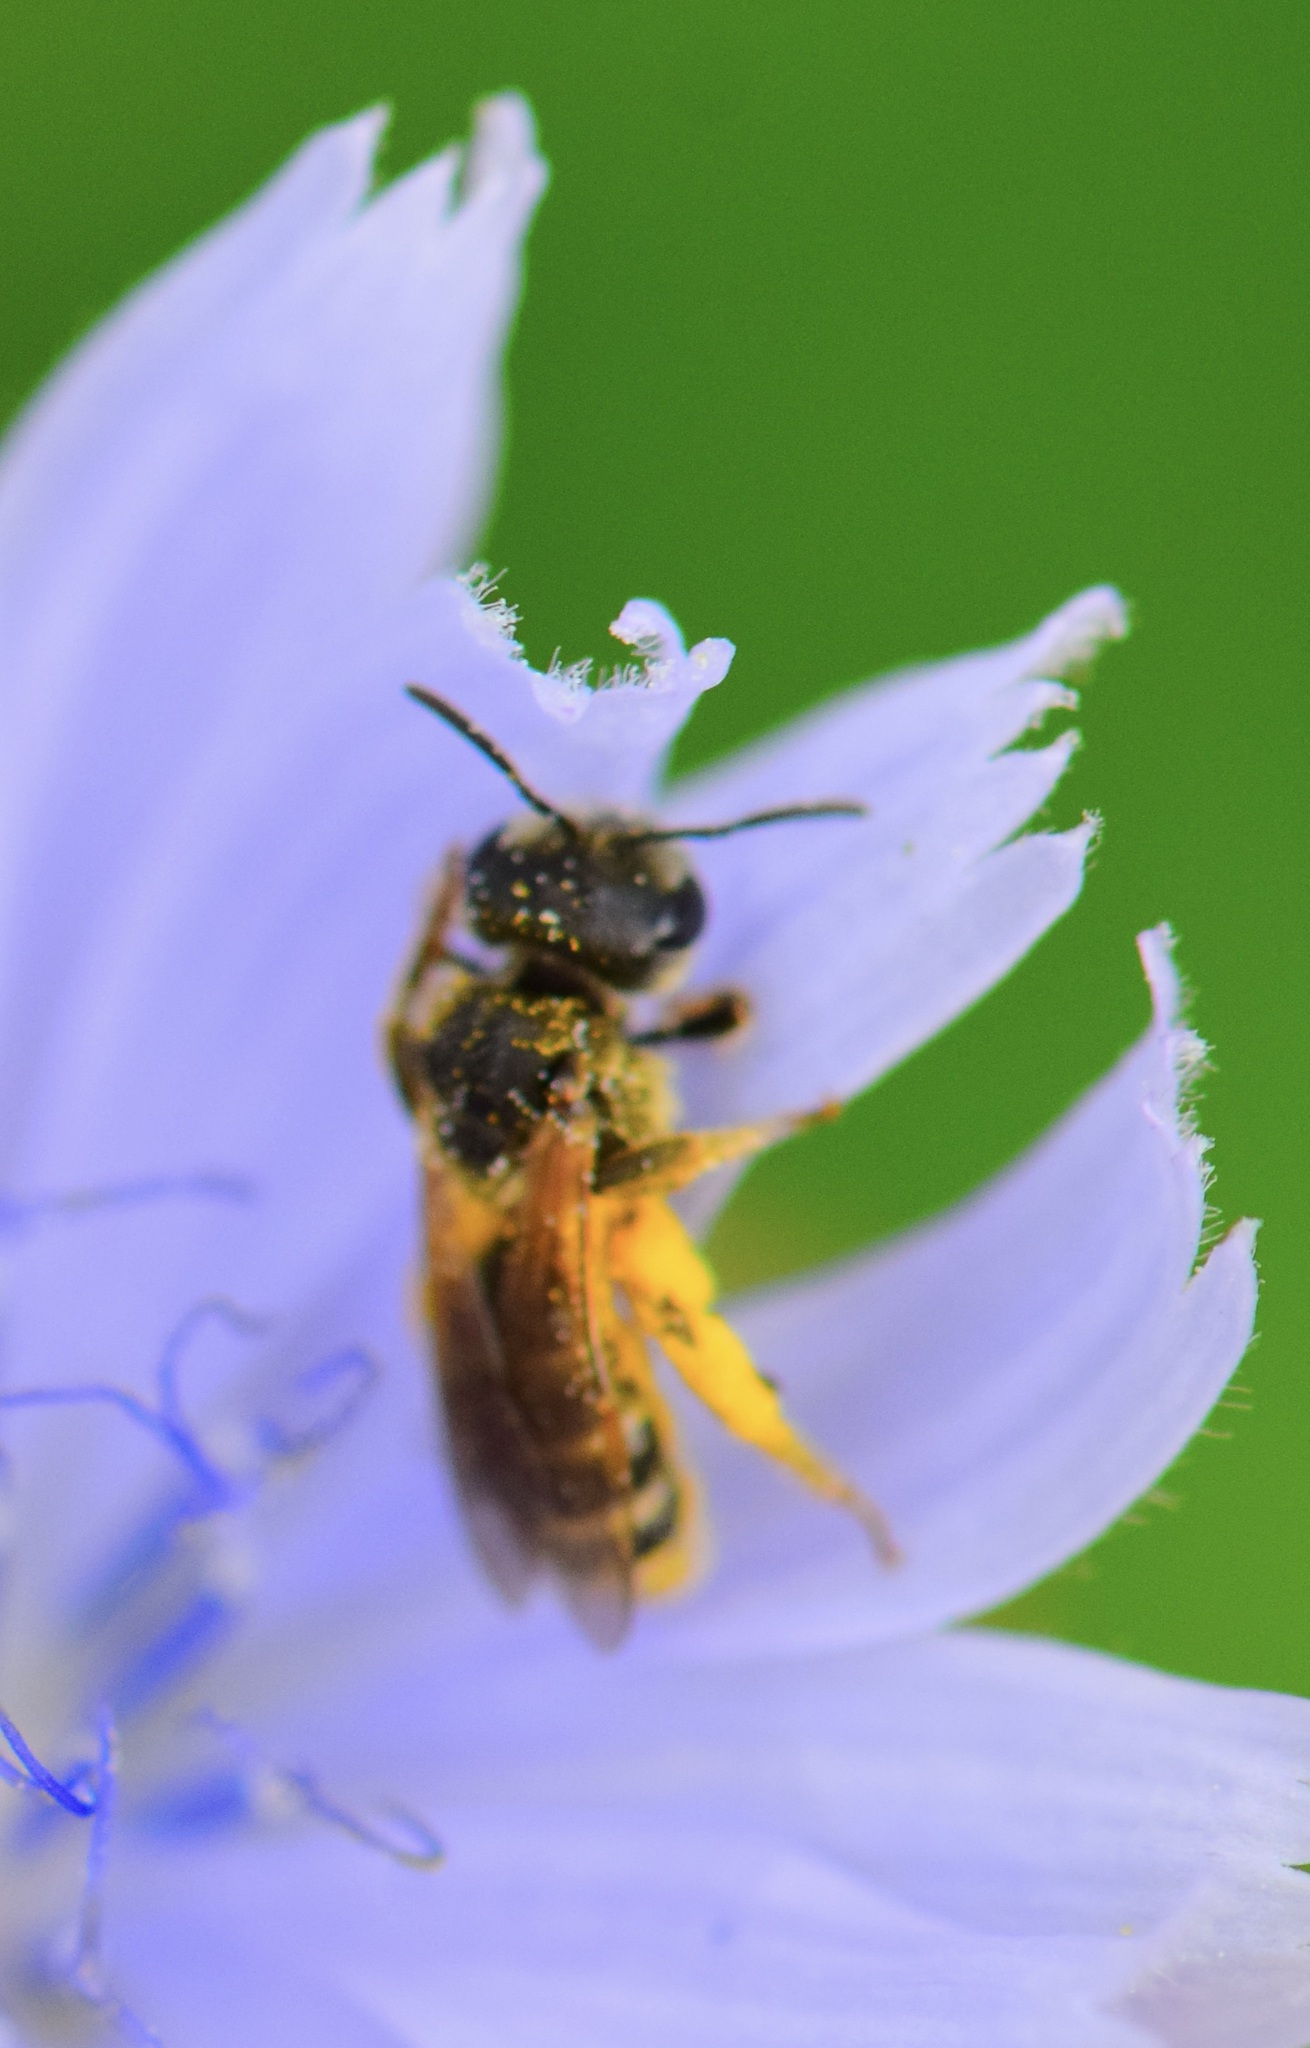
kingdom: Animalia
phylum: Arthropoda
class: Insecta
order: Hymenoptera
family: Halictidae
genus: Halictus
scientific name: Halictus ligatus
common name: Ligated furrow bee
